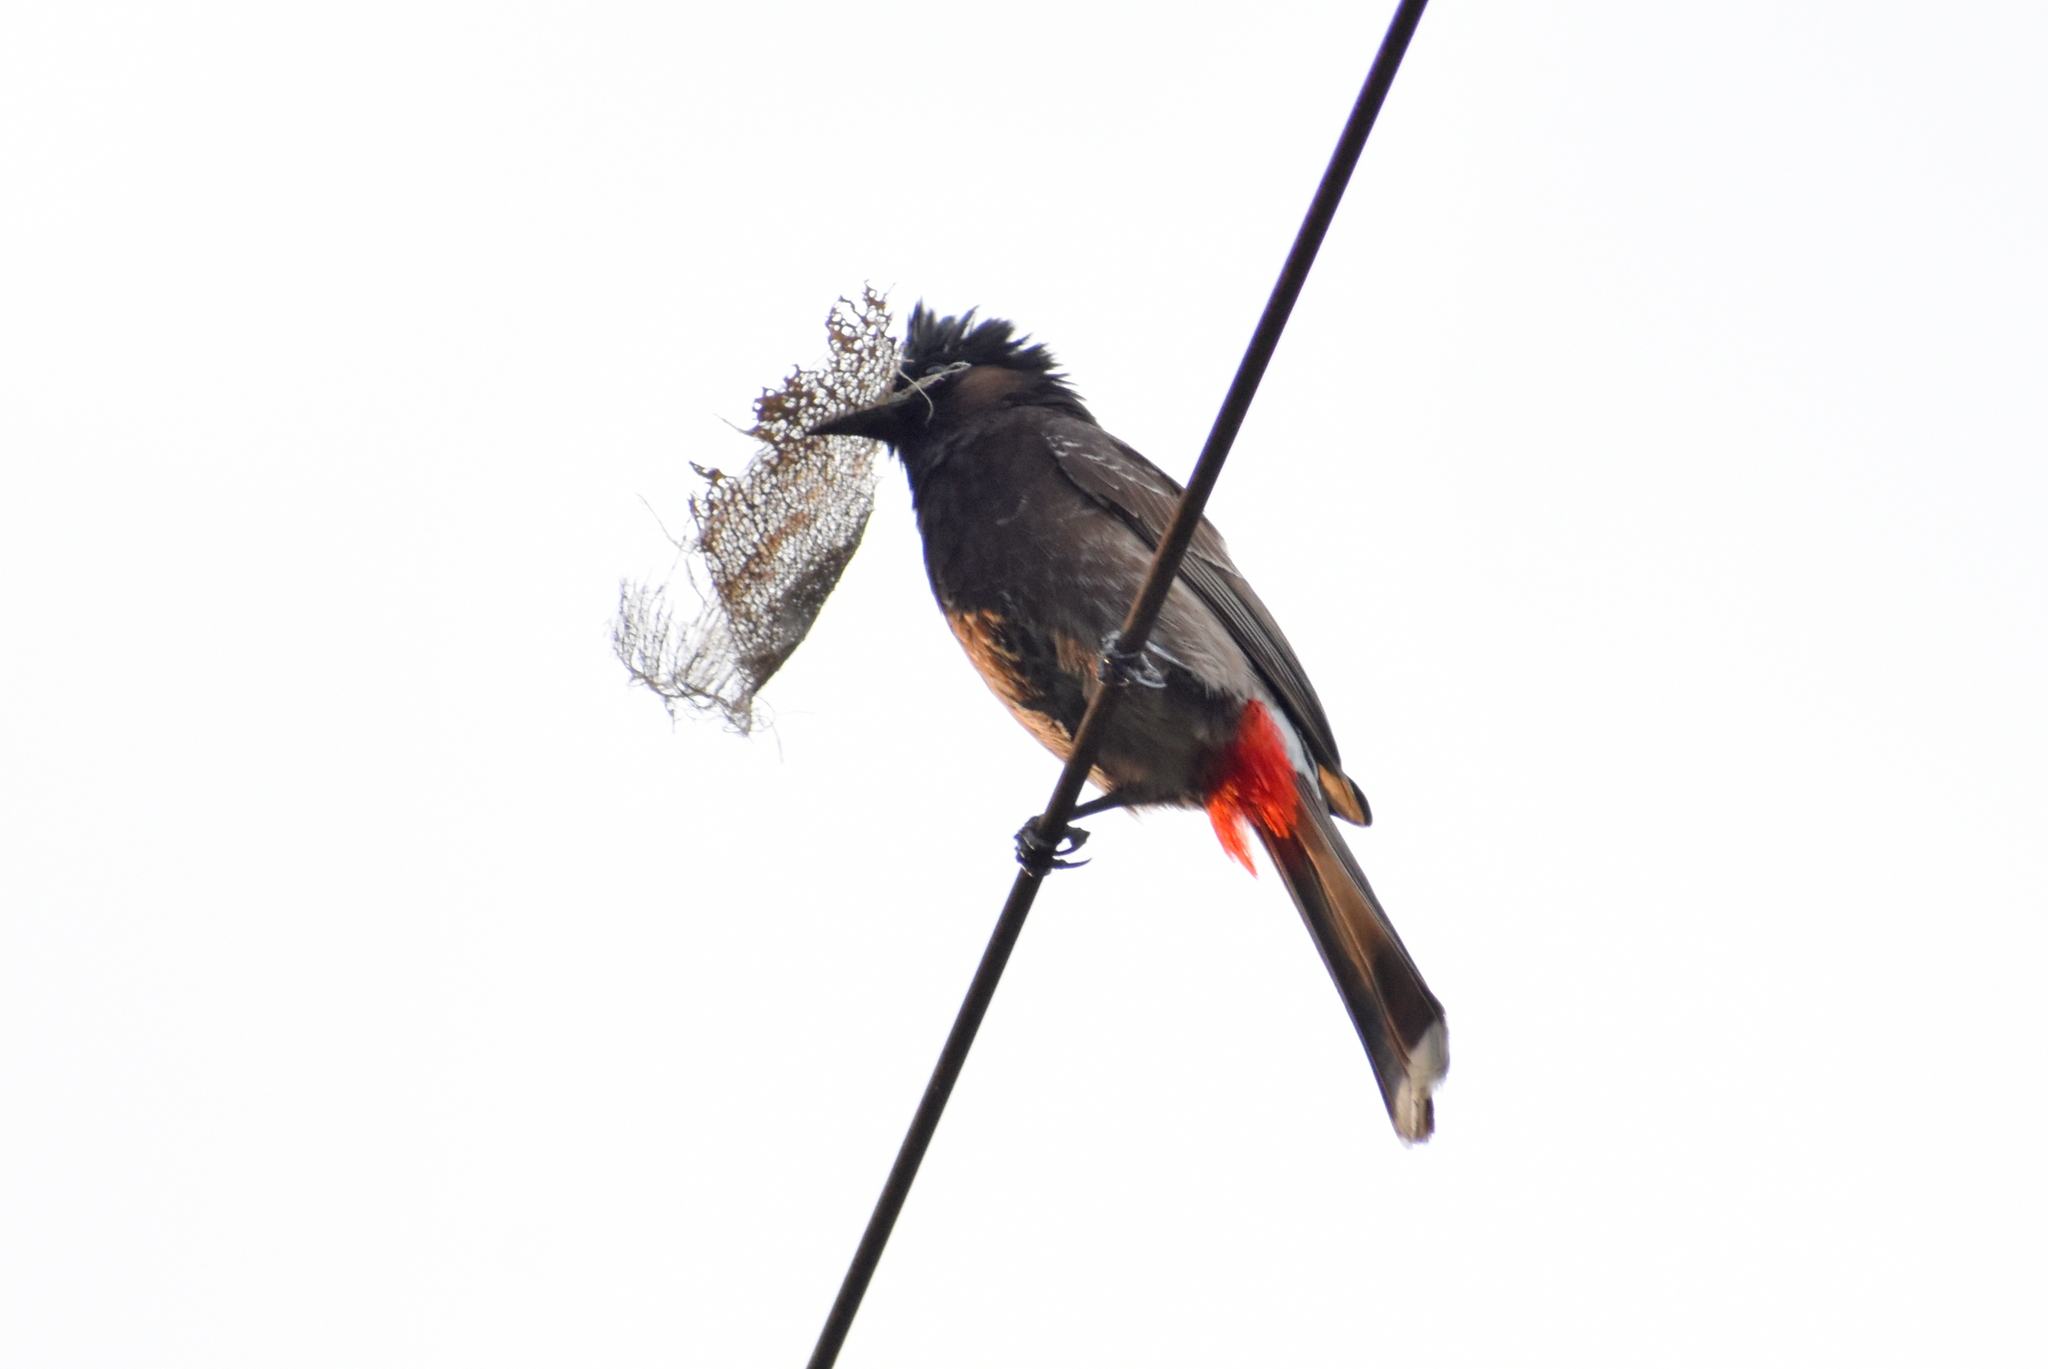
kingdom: Animalia
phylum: Chordata
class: Aves
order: Passeriformes
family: Pycnonotidae
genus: Pycnonotus
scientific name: Pycnonotus cafer
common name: Red-vented bulbul
